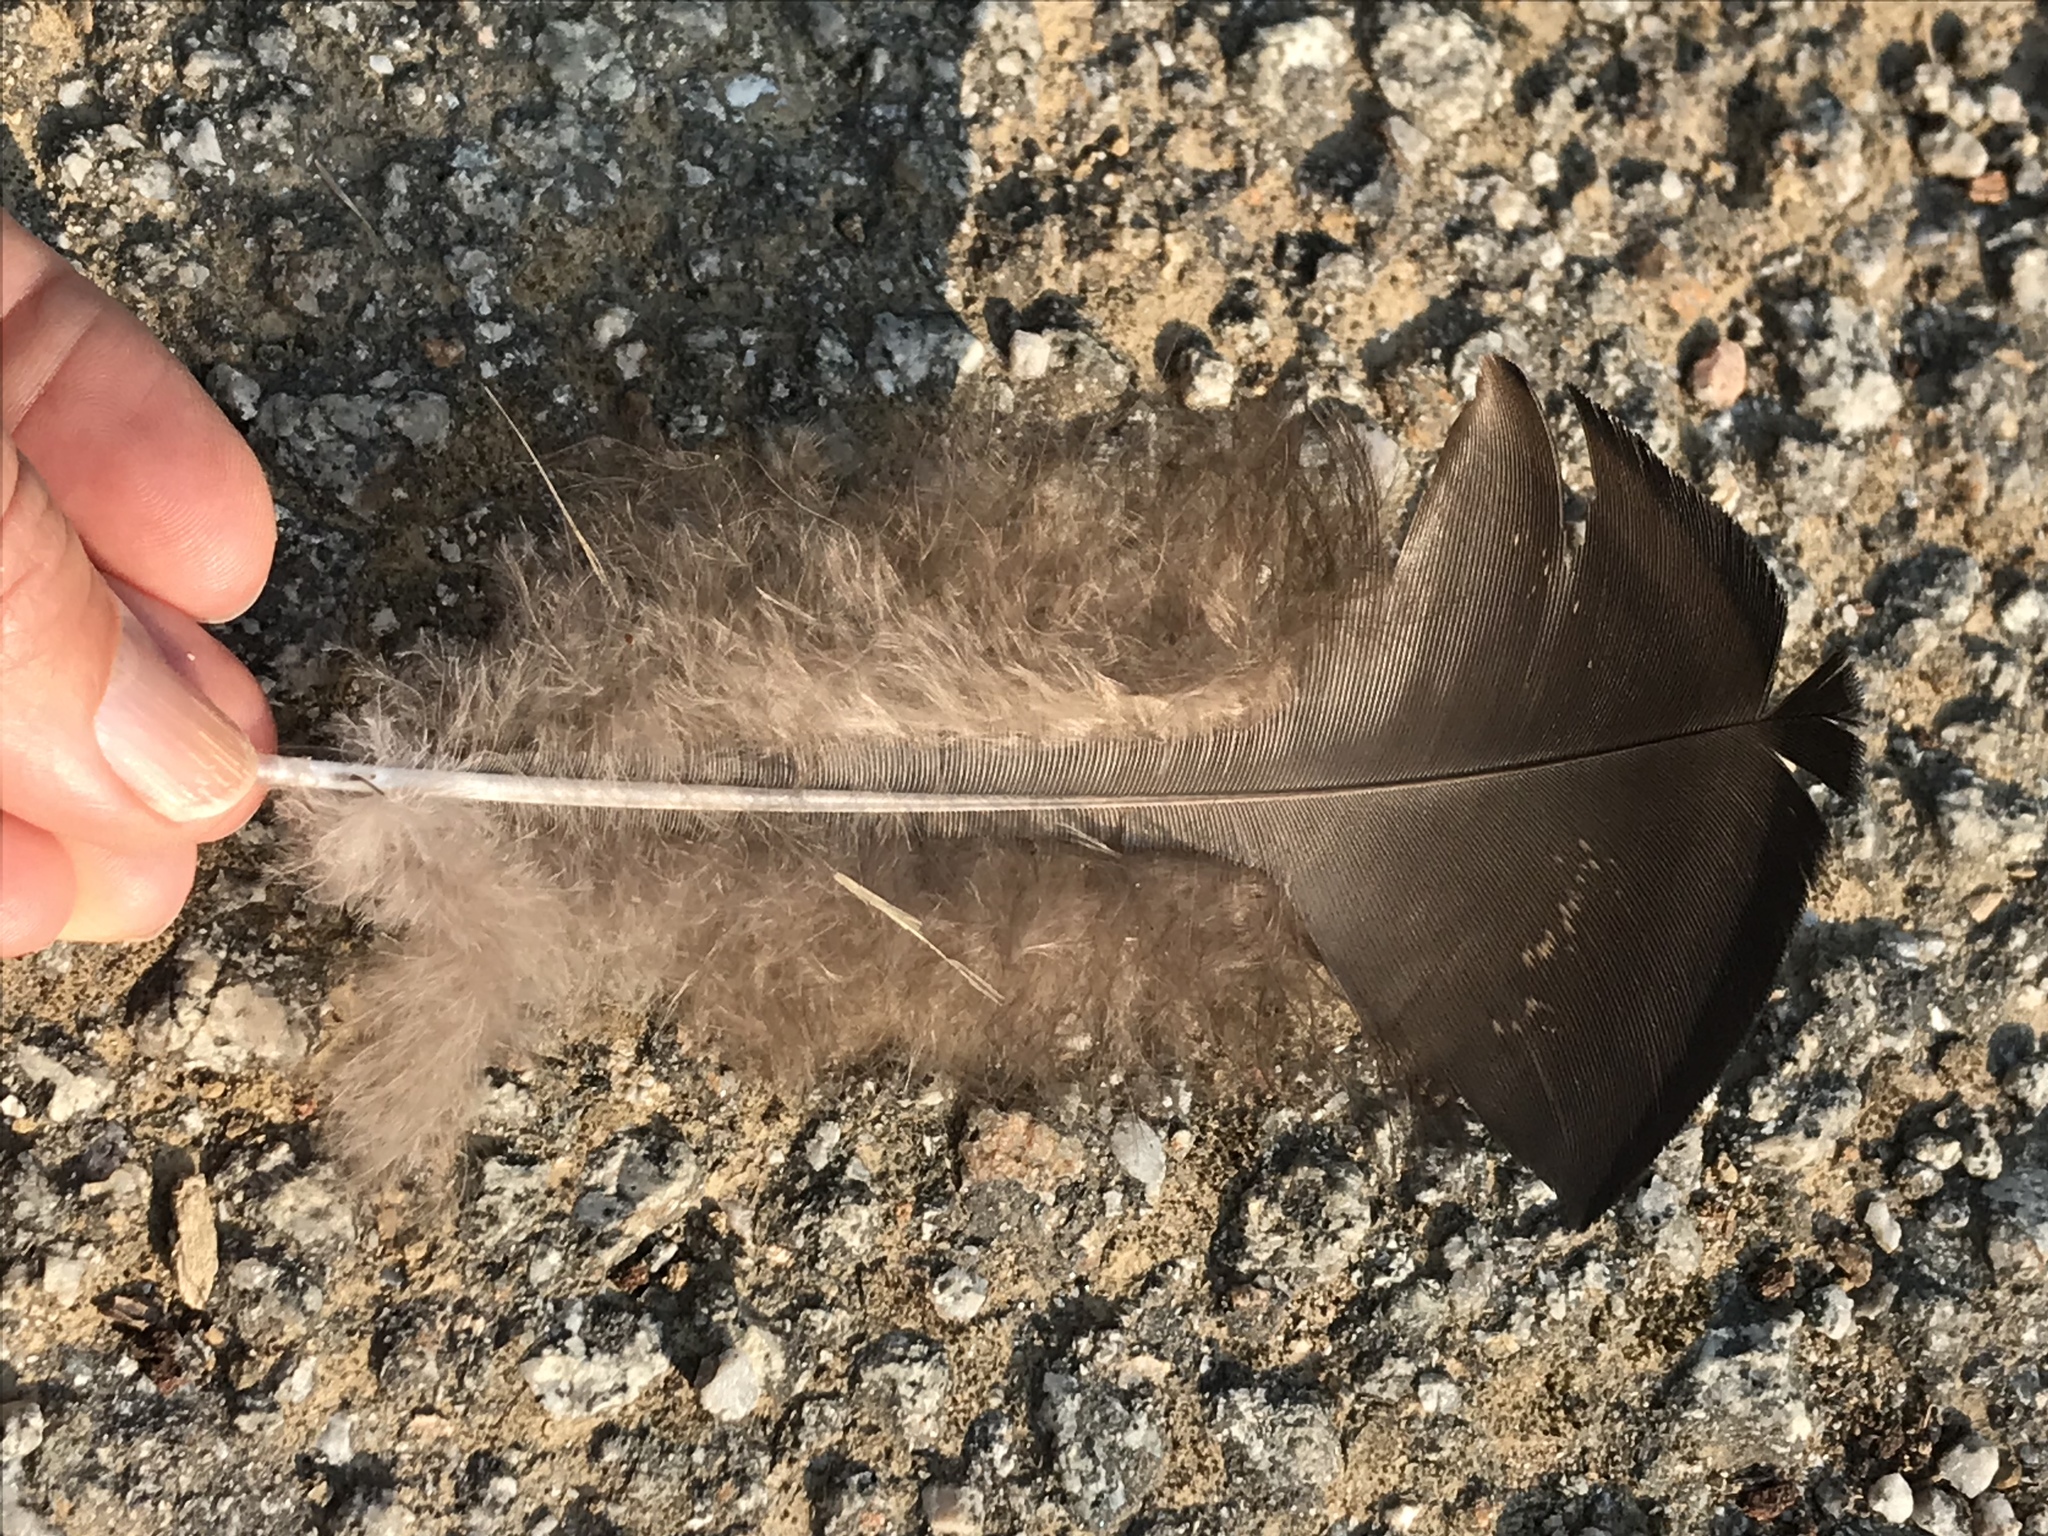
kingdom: Animalia
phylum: Chordata
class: Aves
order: Galliformes
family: Phasianidae
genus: Meleagris
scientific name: Meleagris gallopavo
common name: Wild turkey
